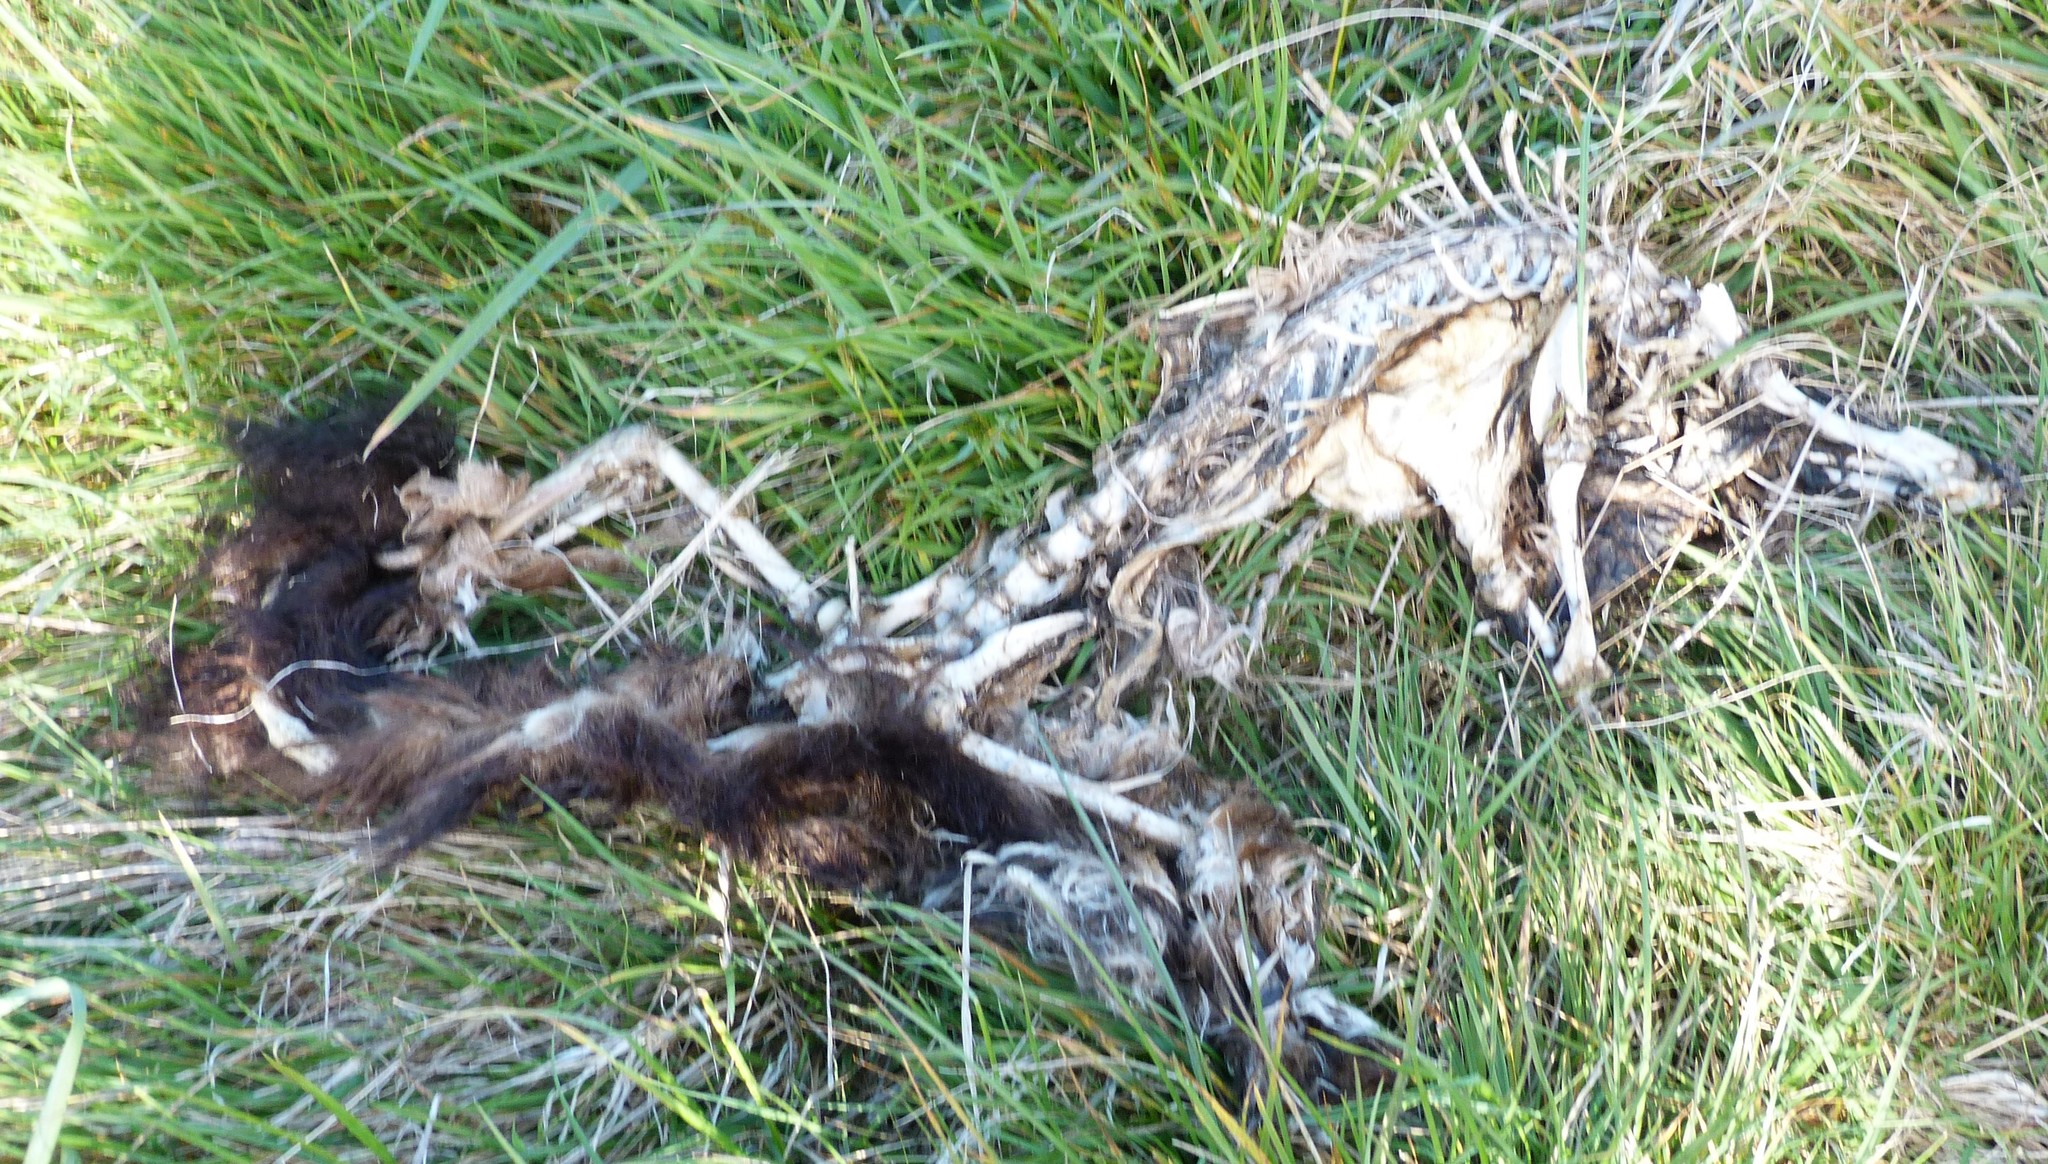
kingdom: Animalia
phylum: Chordata
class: Mammalia
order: Diprotodontia
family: Phalangeridae
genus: Trichosurus
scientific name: Trichosurus vulpecula
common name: Common brushtail
